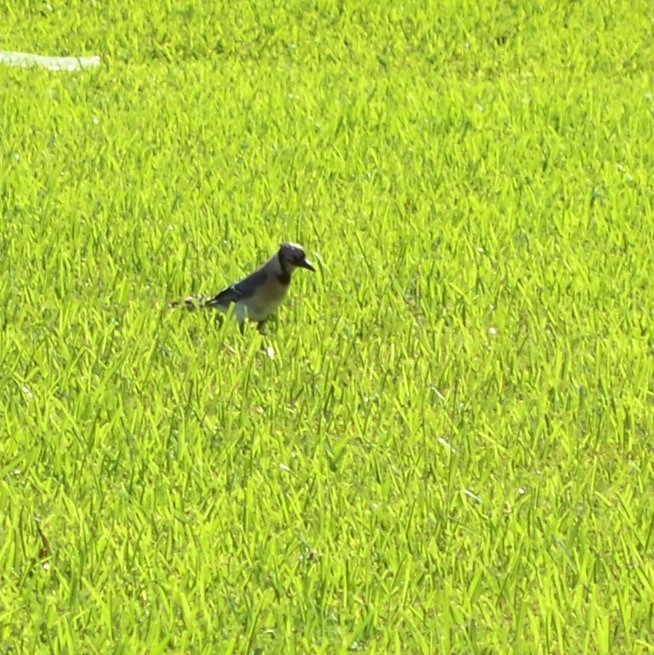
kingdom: Animalia
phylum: Chordata
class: Aves
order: Passeriformes
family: Corvidae
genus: Cyanocitta
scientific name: Cyanocitta cristata
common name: Blue jay
